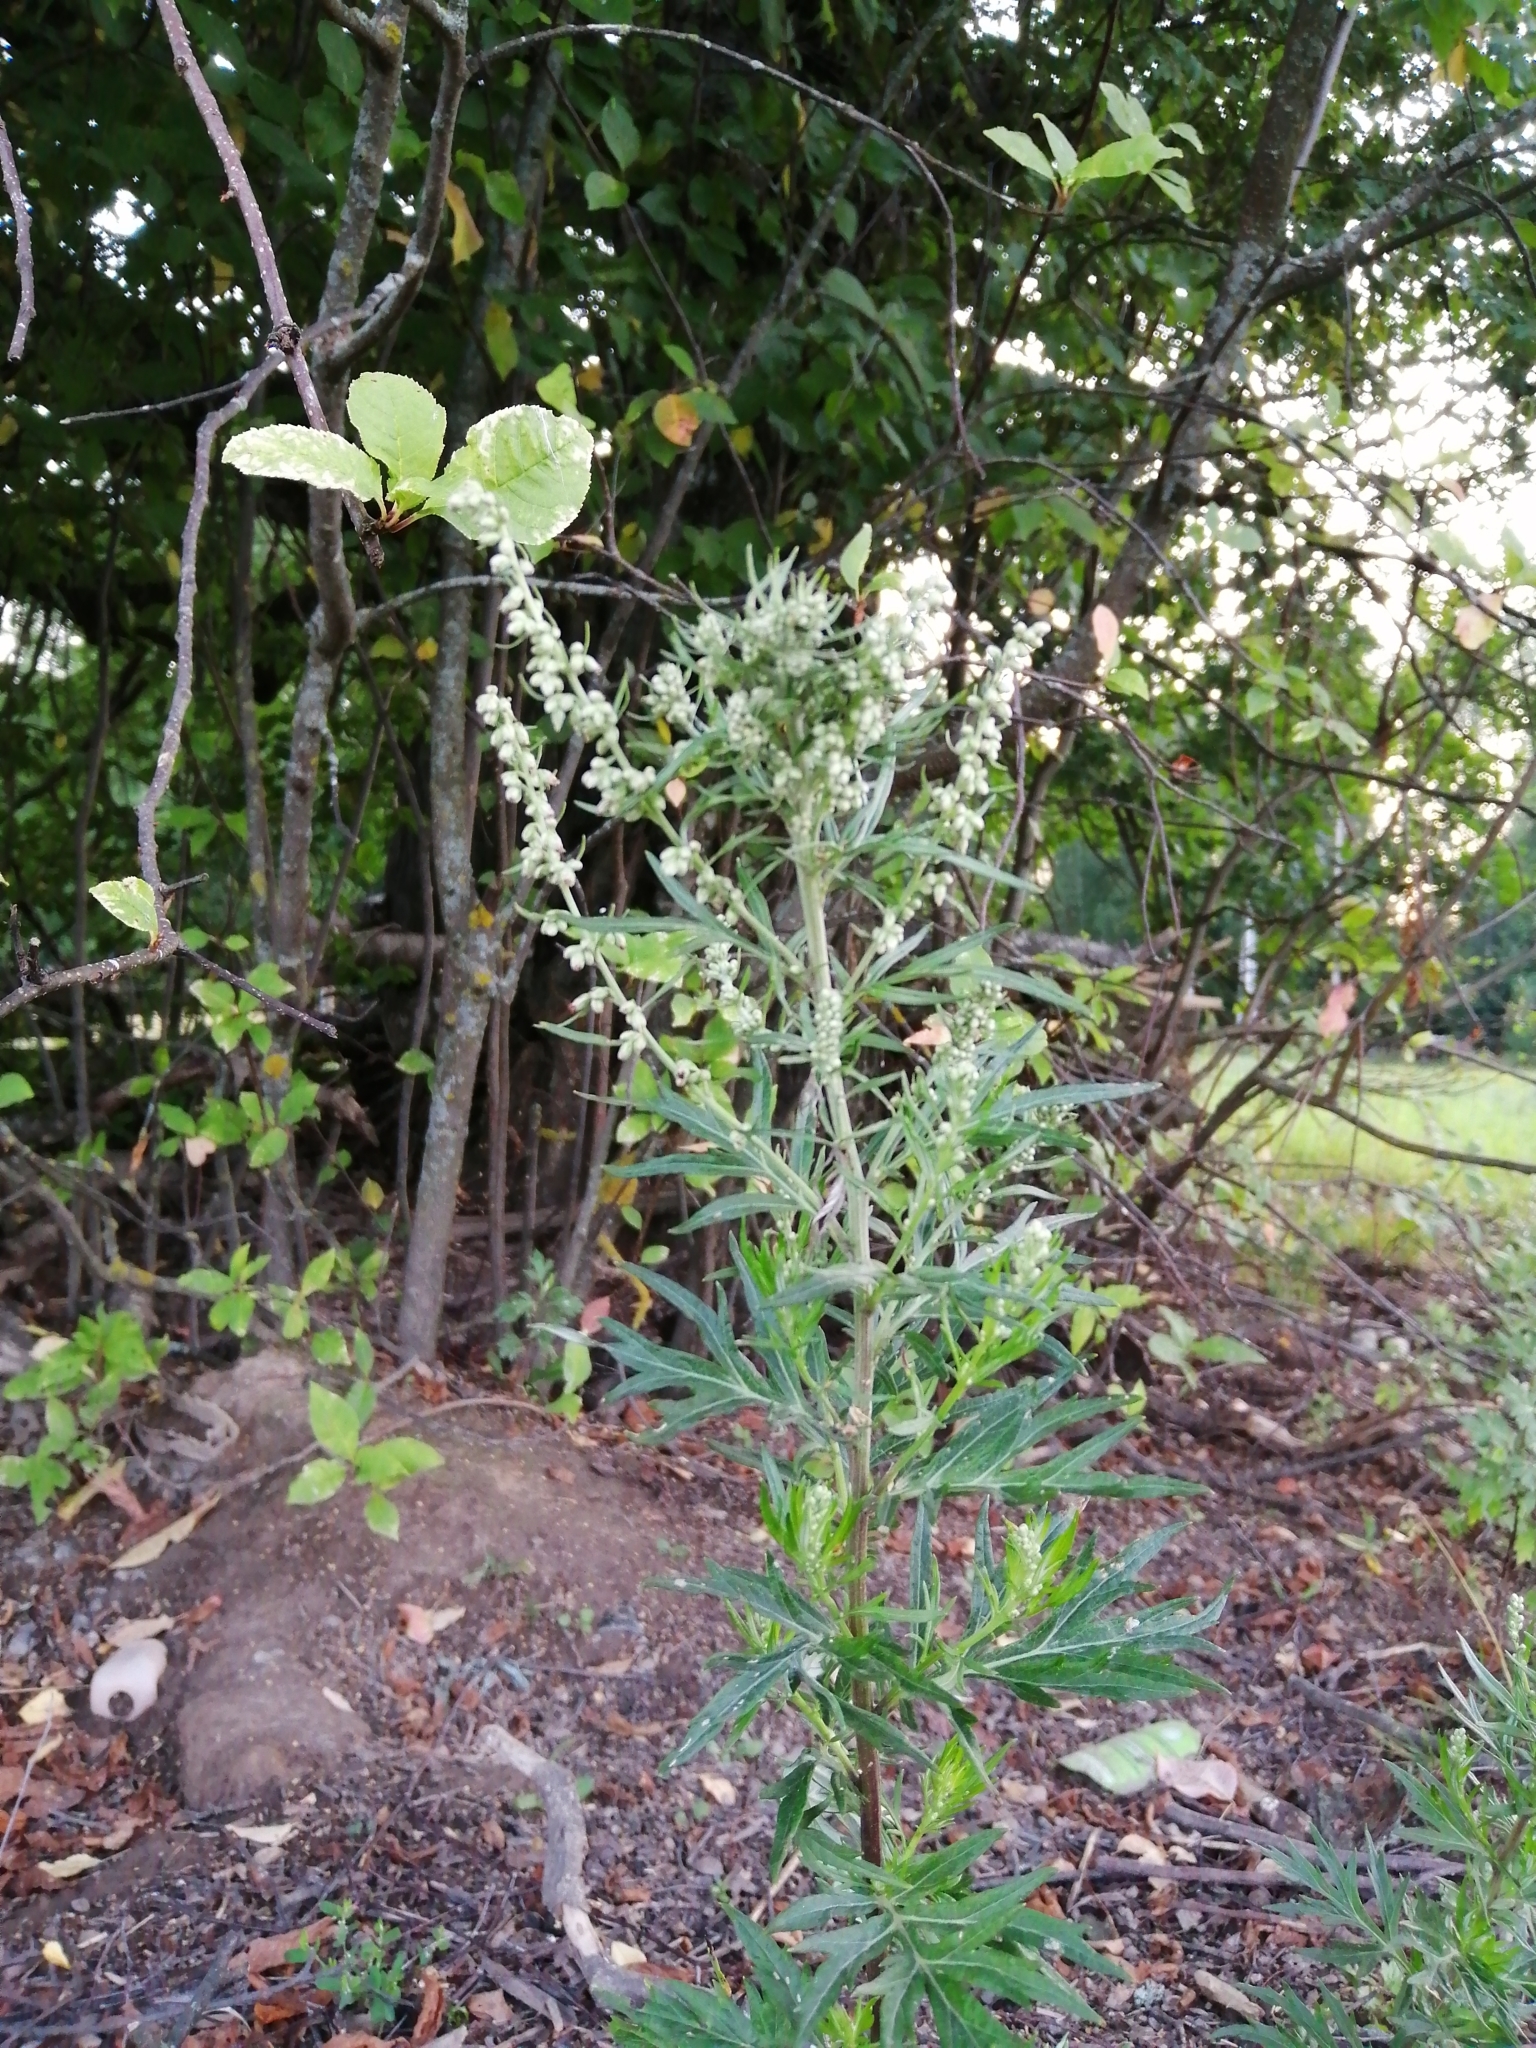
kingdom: Plantae
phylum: Tracheophyta
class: Magnoliopsida
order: Asterales
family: Asteraceae
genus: Artemisia
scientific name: Artemisia vulgaris
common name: Mugwort
